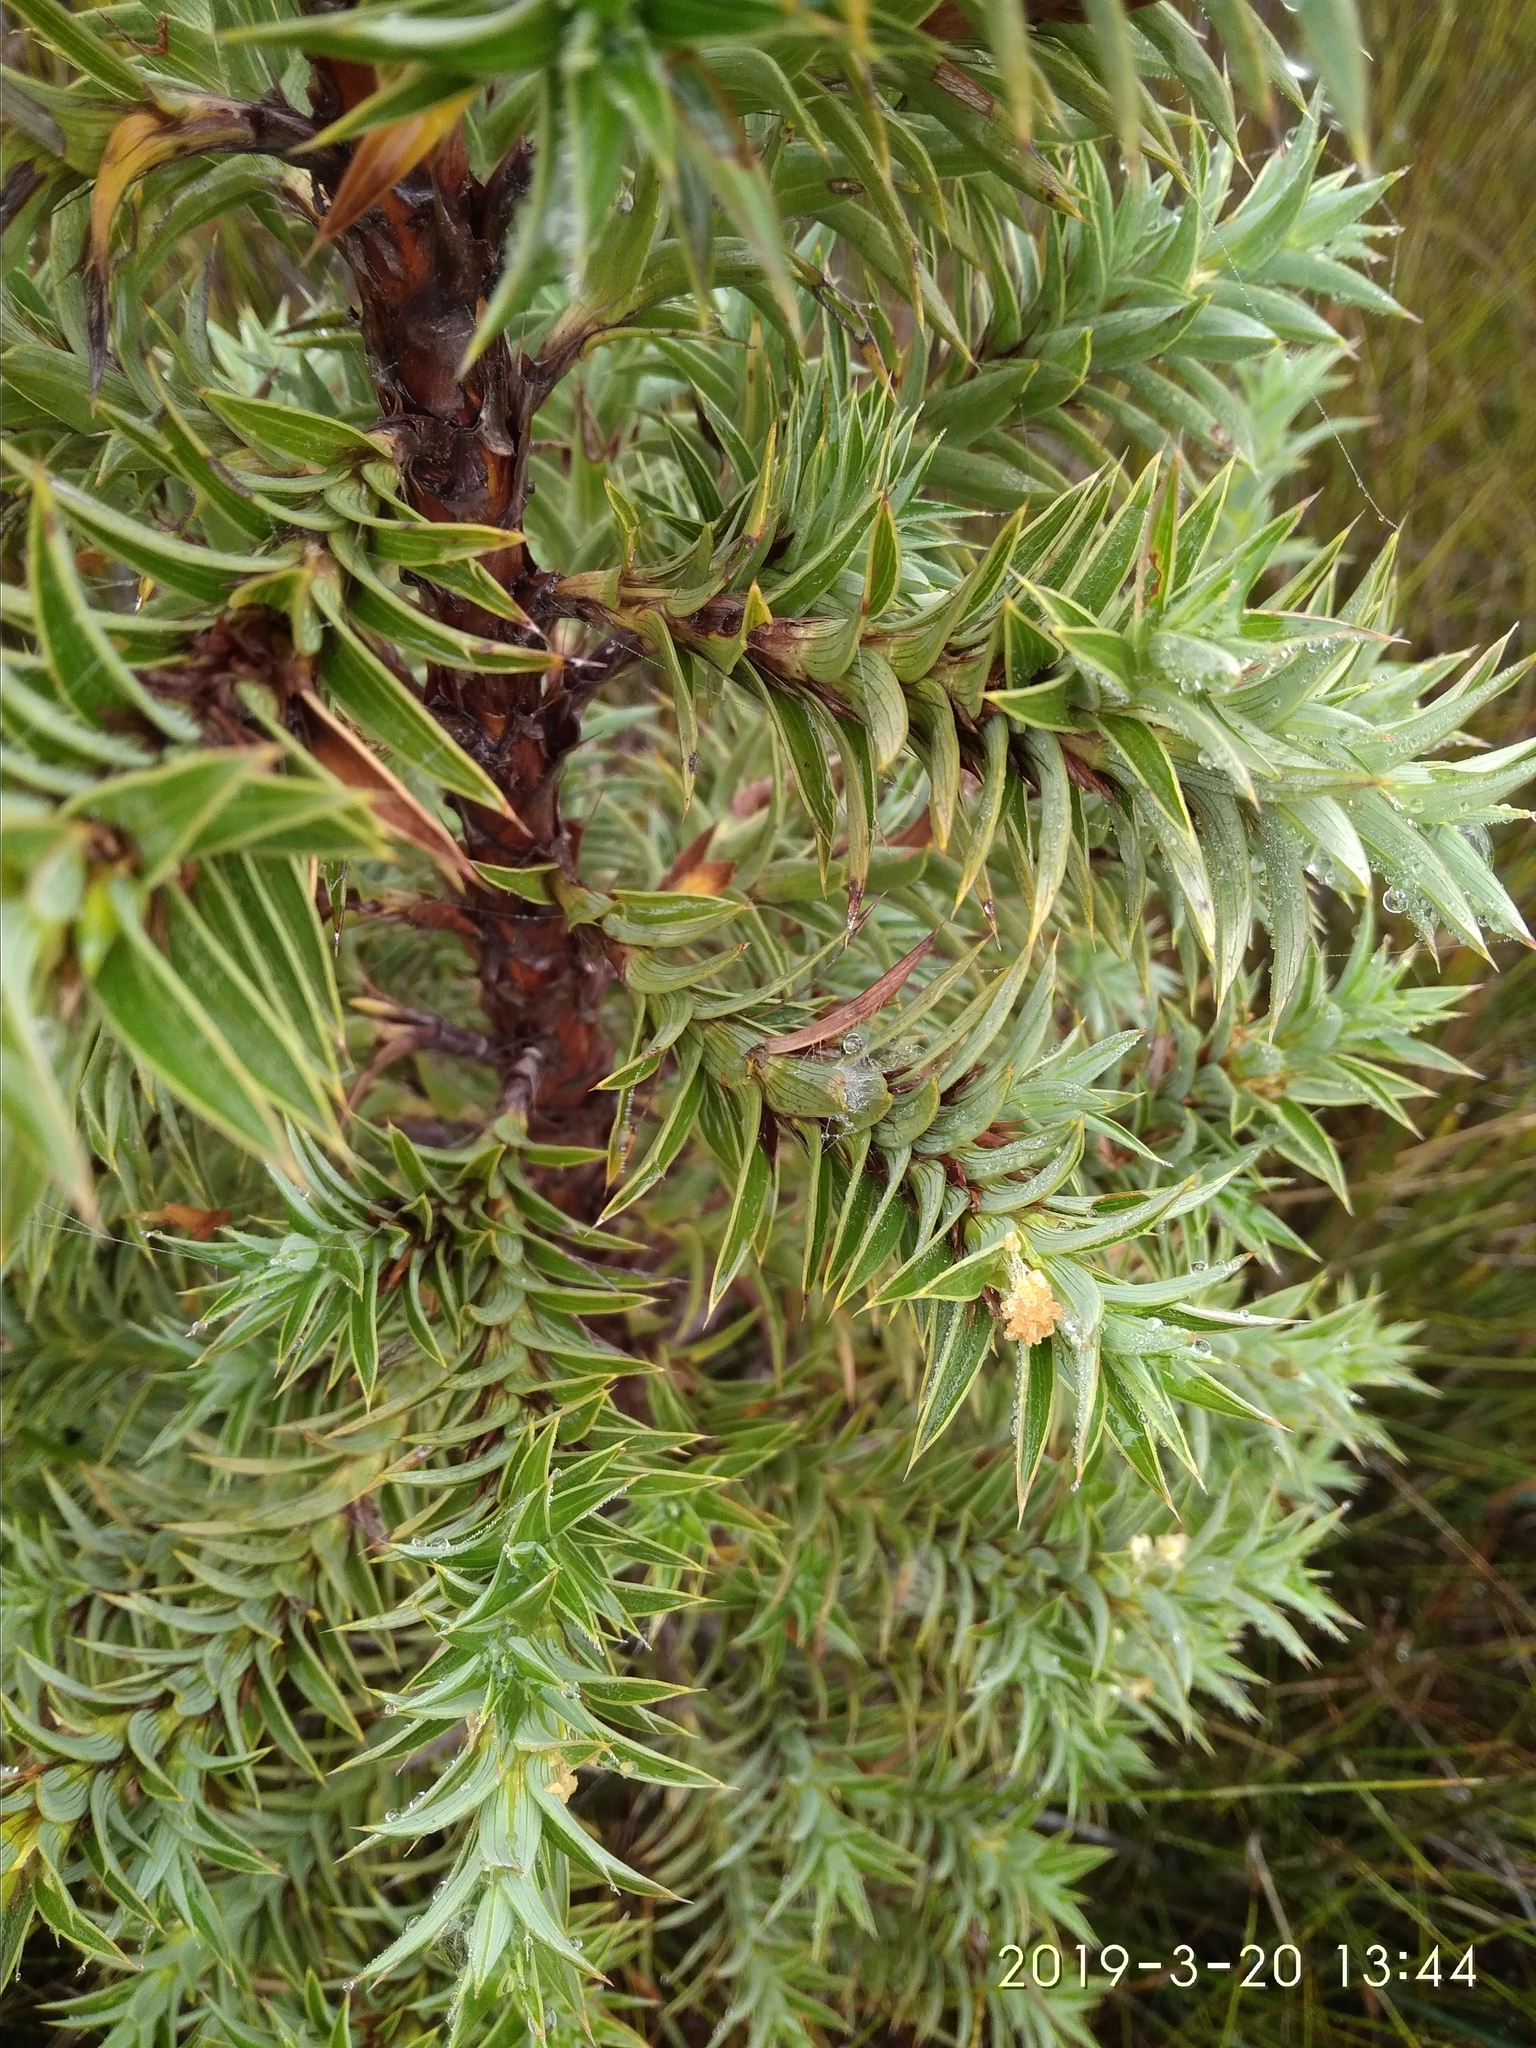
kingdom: Plantae
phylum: Tracheophyta
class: Magnoliopsida
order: Rosales
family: Rosaceae
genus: Cliffortia
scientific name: Cliffortia dregeana
